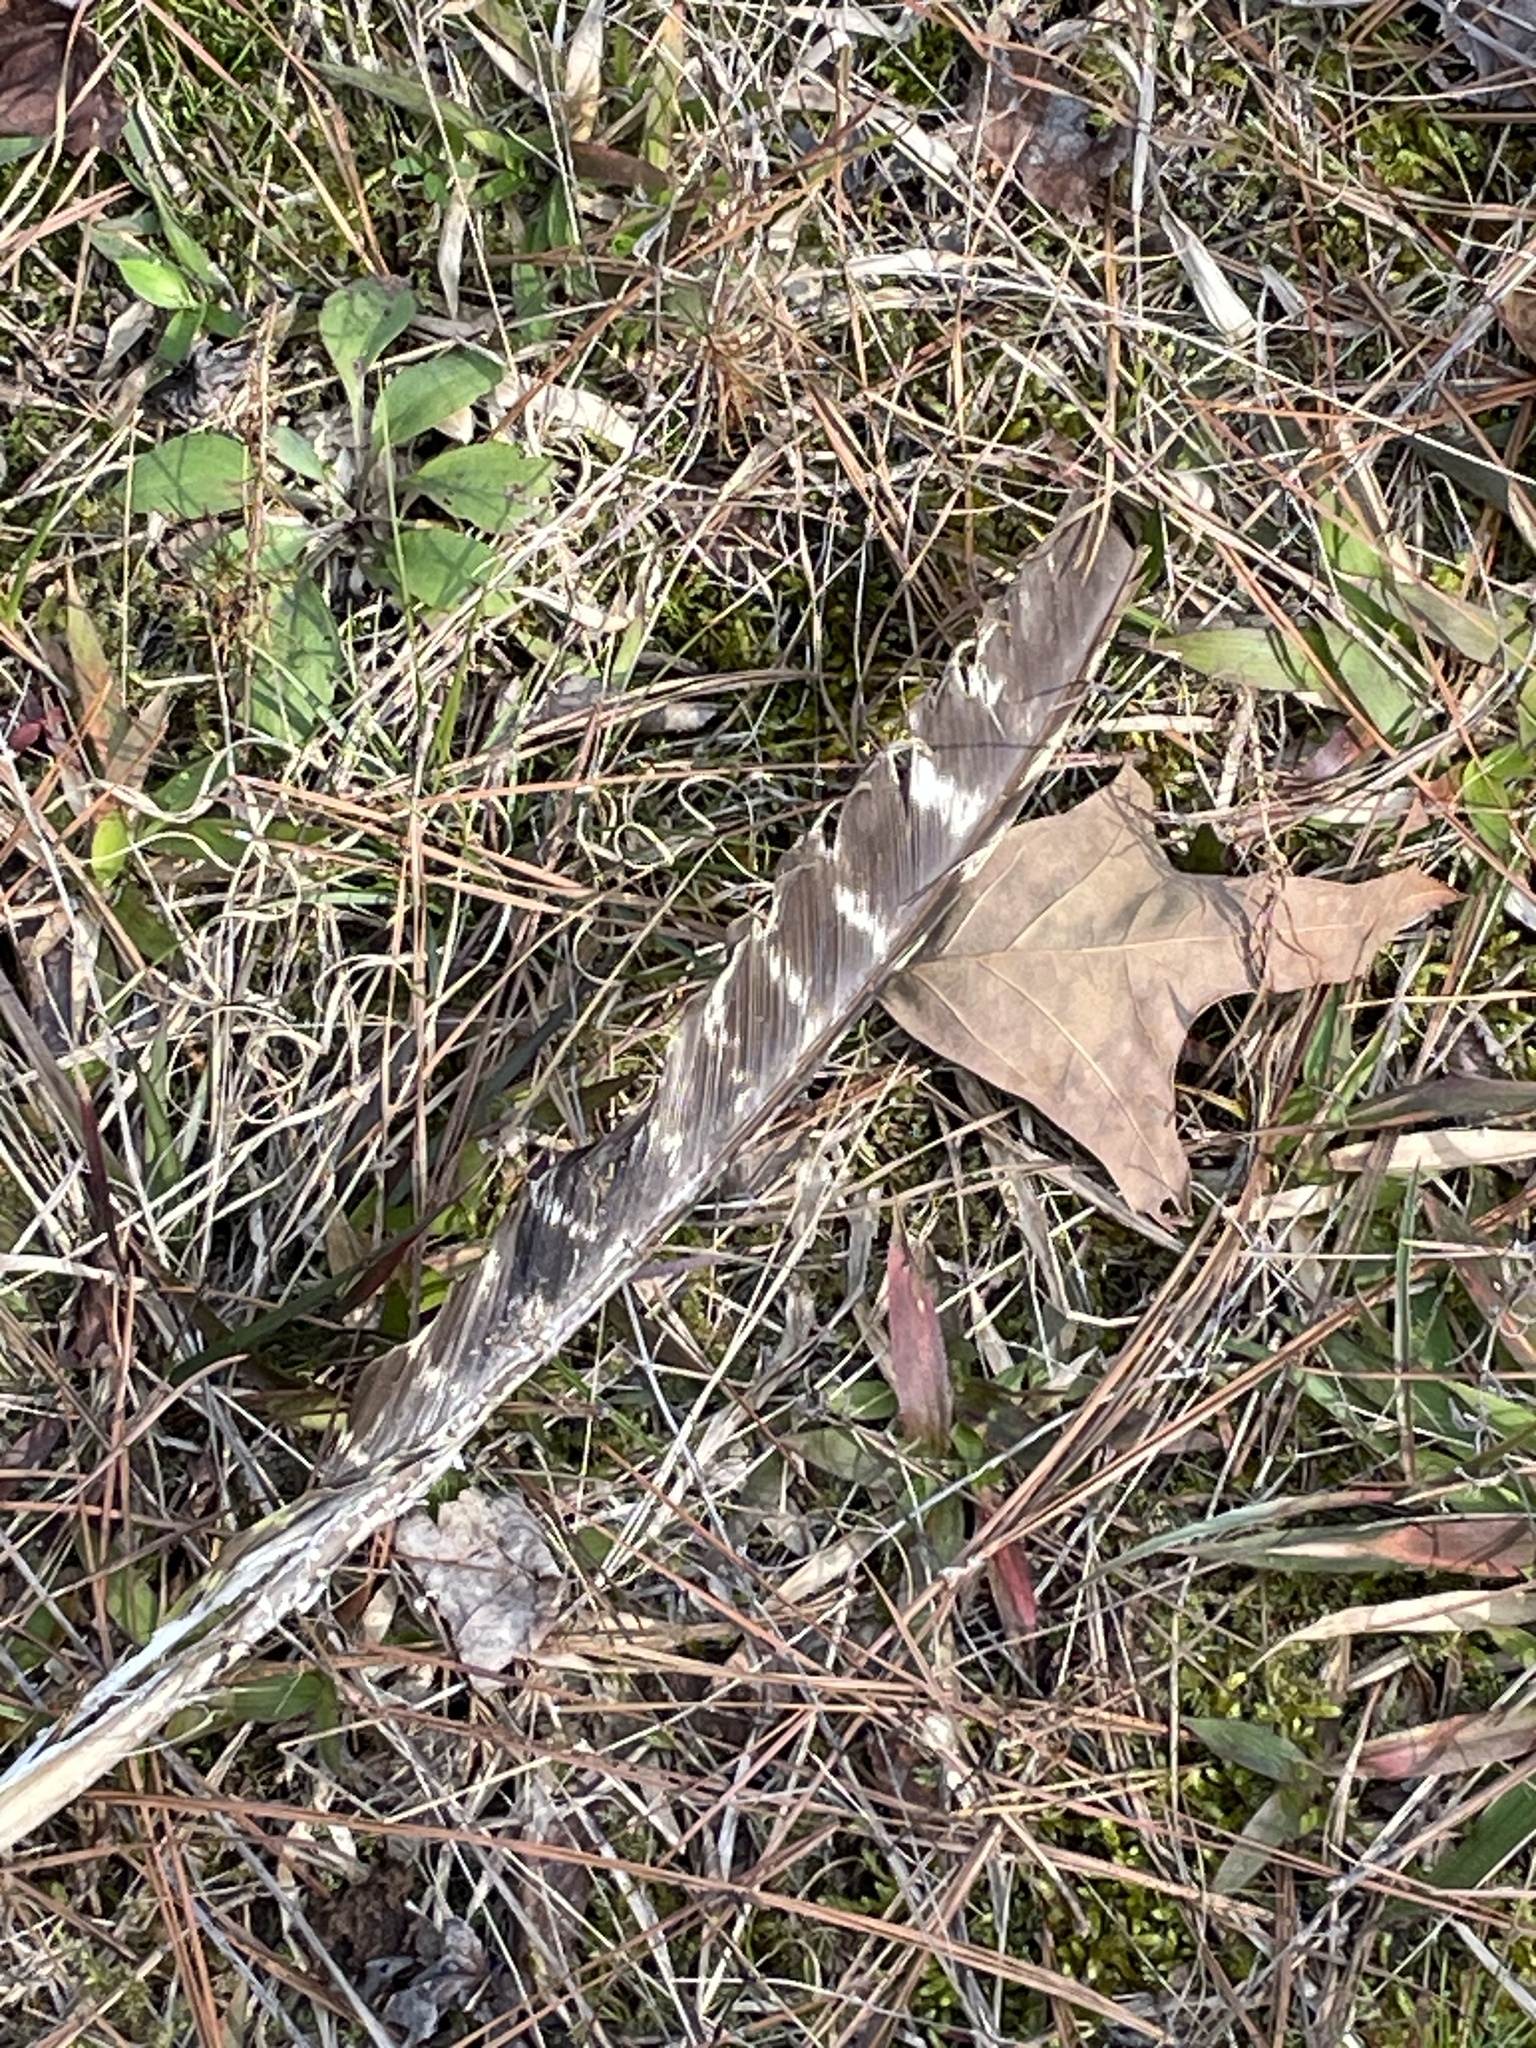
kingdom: Animalia
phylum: Chordata
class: Aves
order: Galliformes
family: Phasianidae
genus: Meleagris
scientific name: Meleagris gallopavo
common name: Wild turkey
